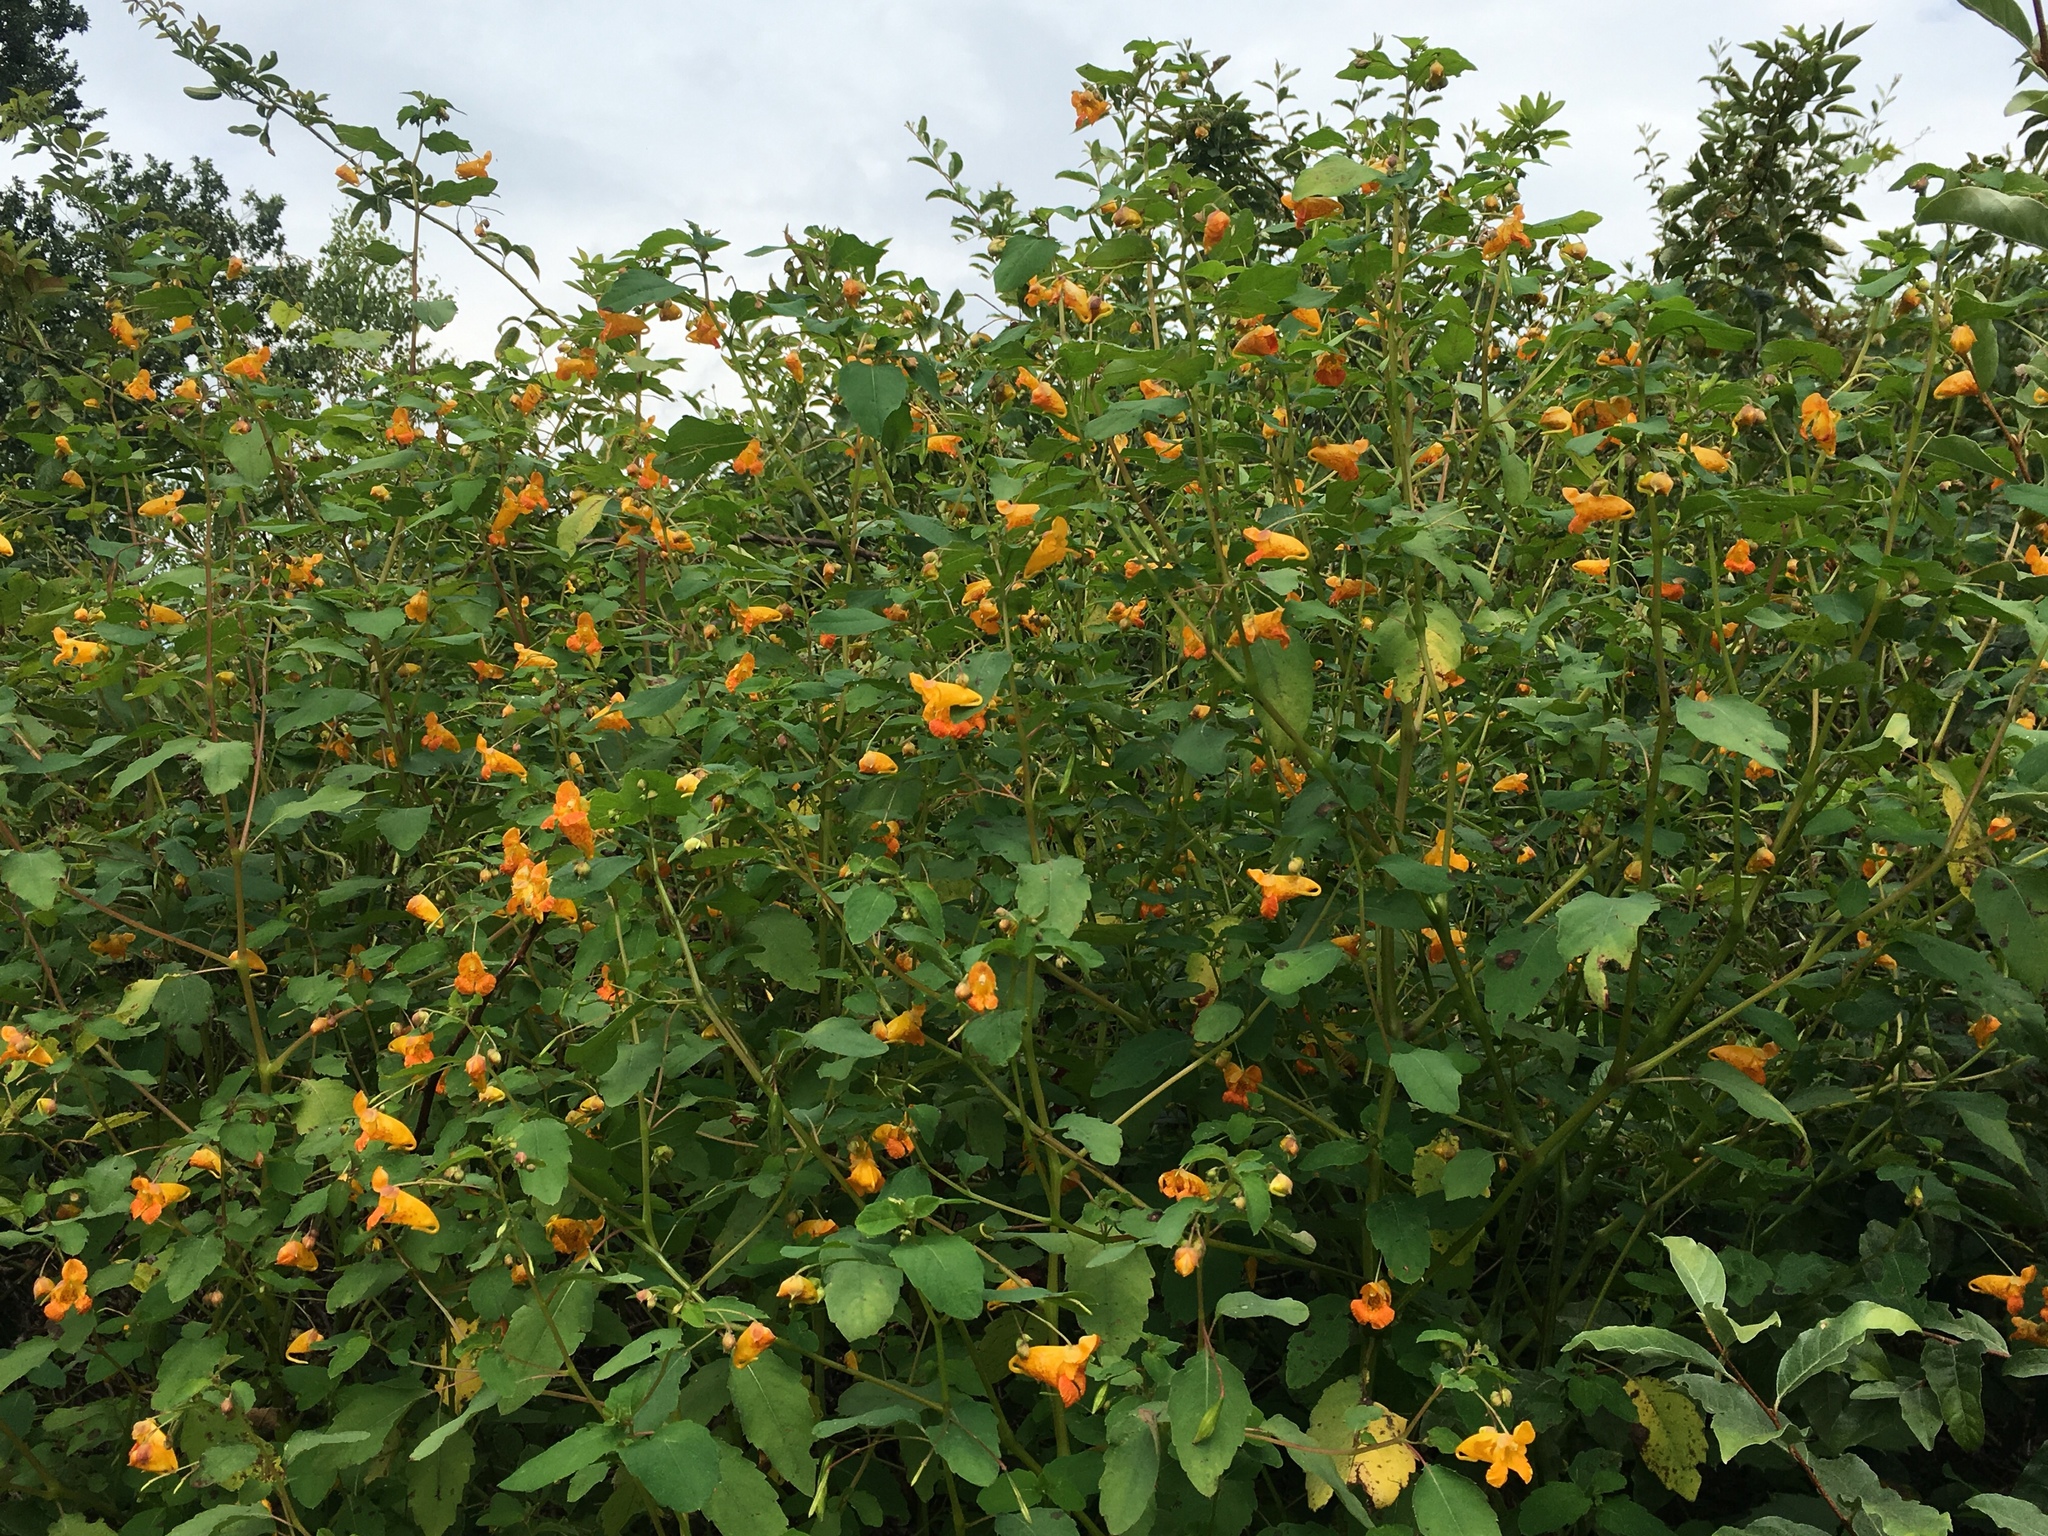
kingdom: Plantae
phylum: Tracheophyta
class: Magnoliopsida
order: Ericales
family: Balsaminaceae
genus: Impatiens
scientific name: Impatiens capensis
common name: Orange balsam
